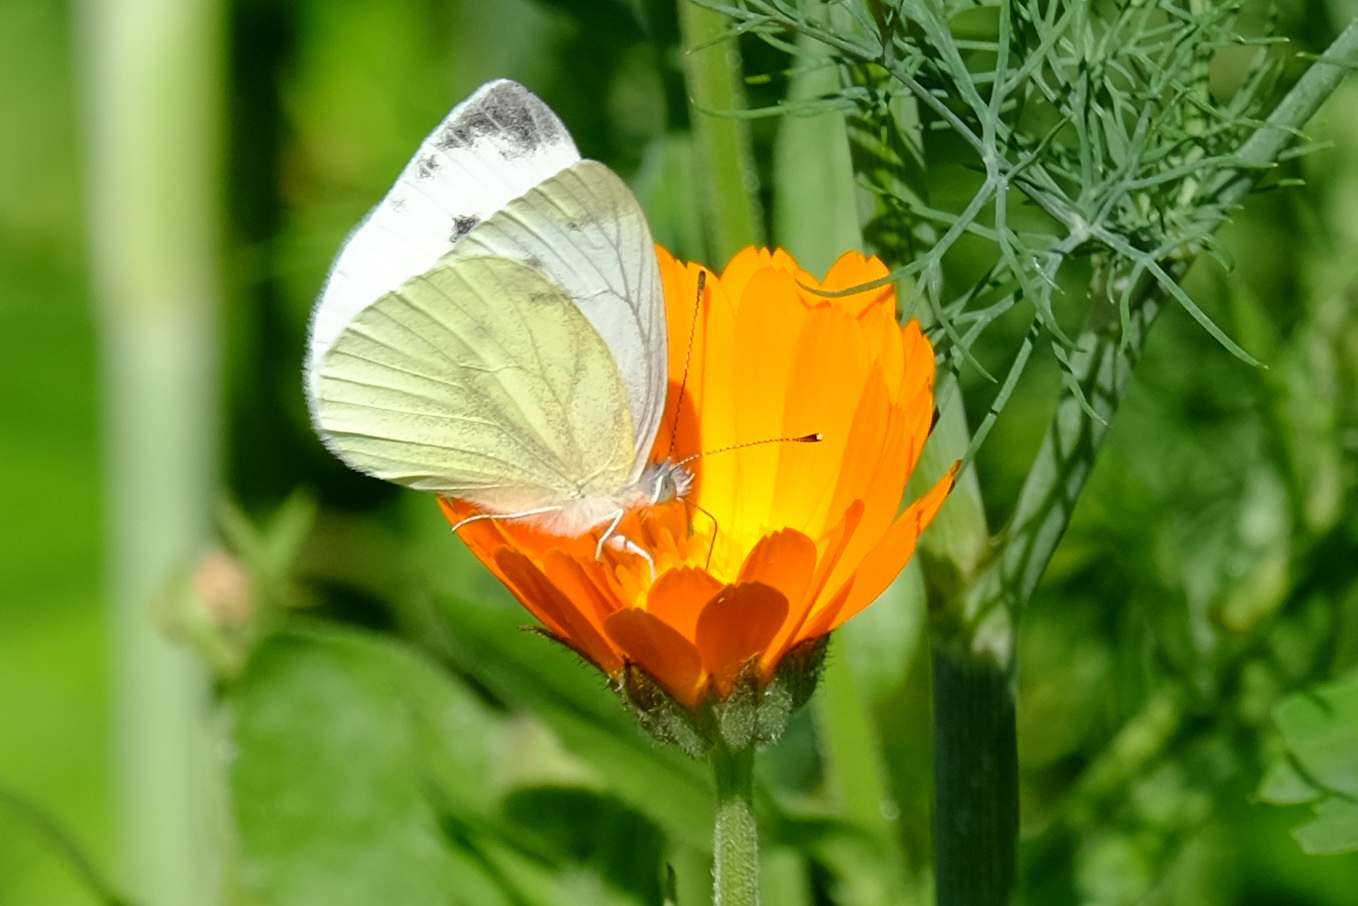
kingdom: Animalia
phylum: Arthropoda
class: Insecta
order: Lepidoptera
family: Pieridae
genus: Pieris
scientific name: Pieris napi
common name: Green-veined white
